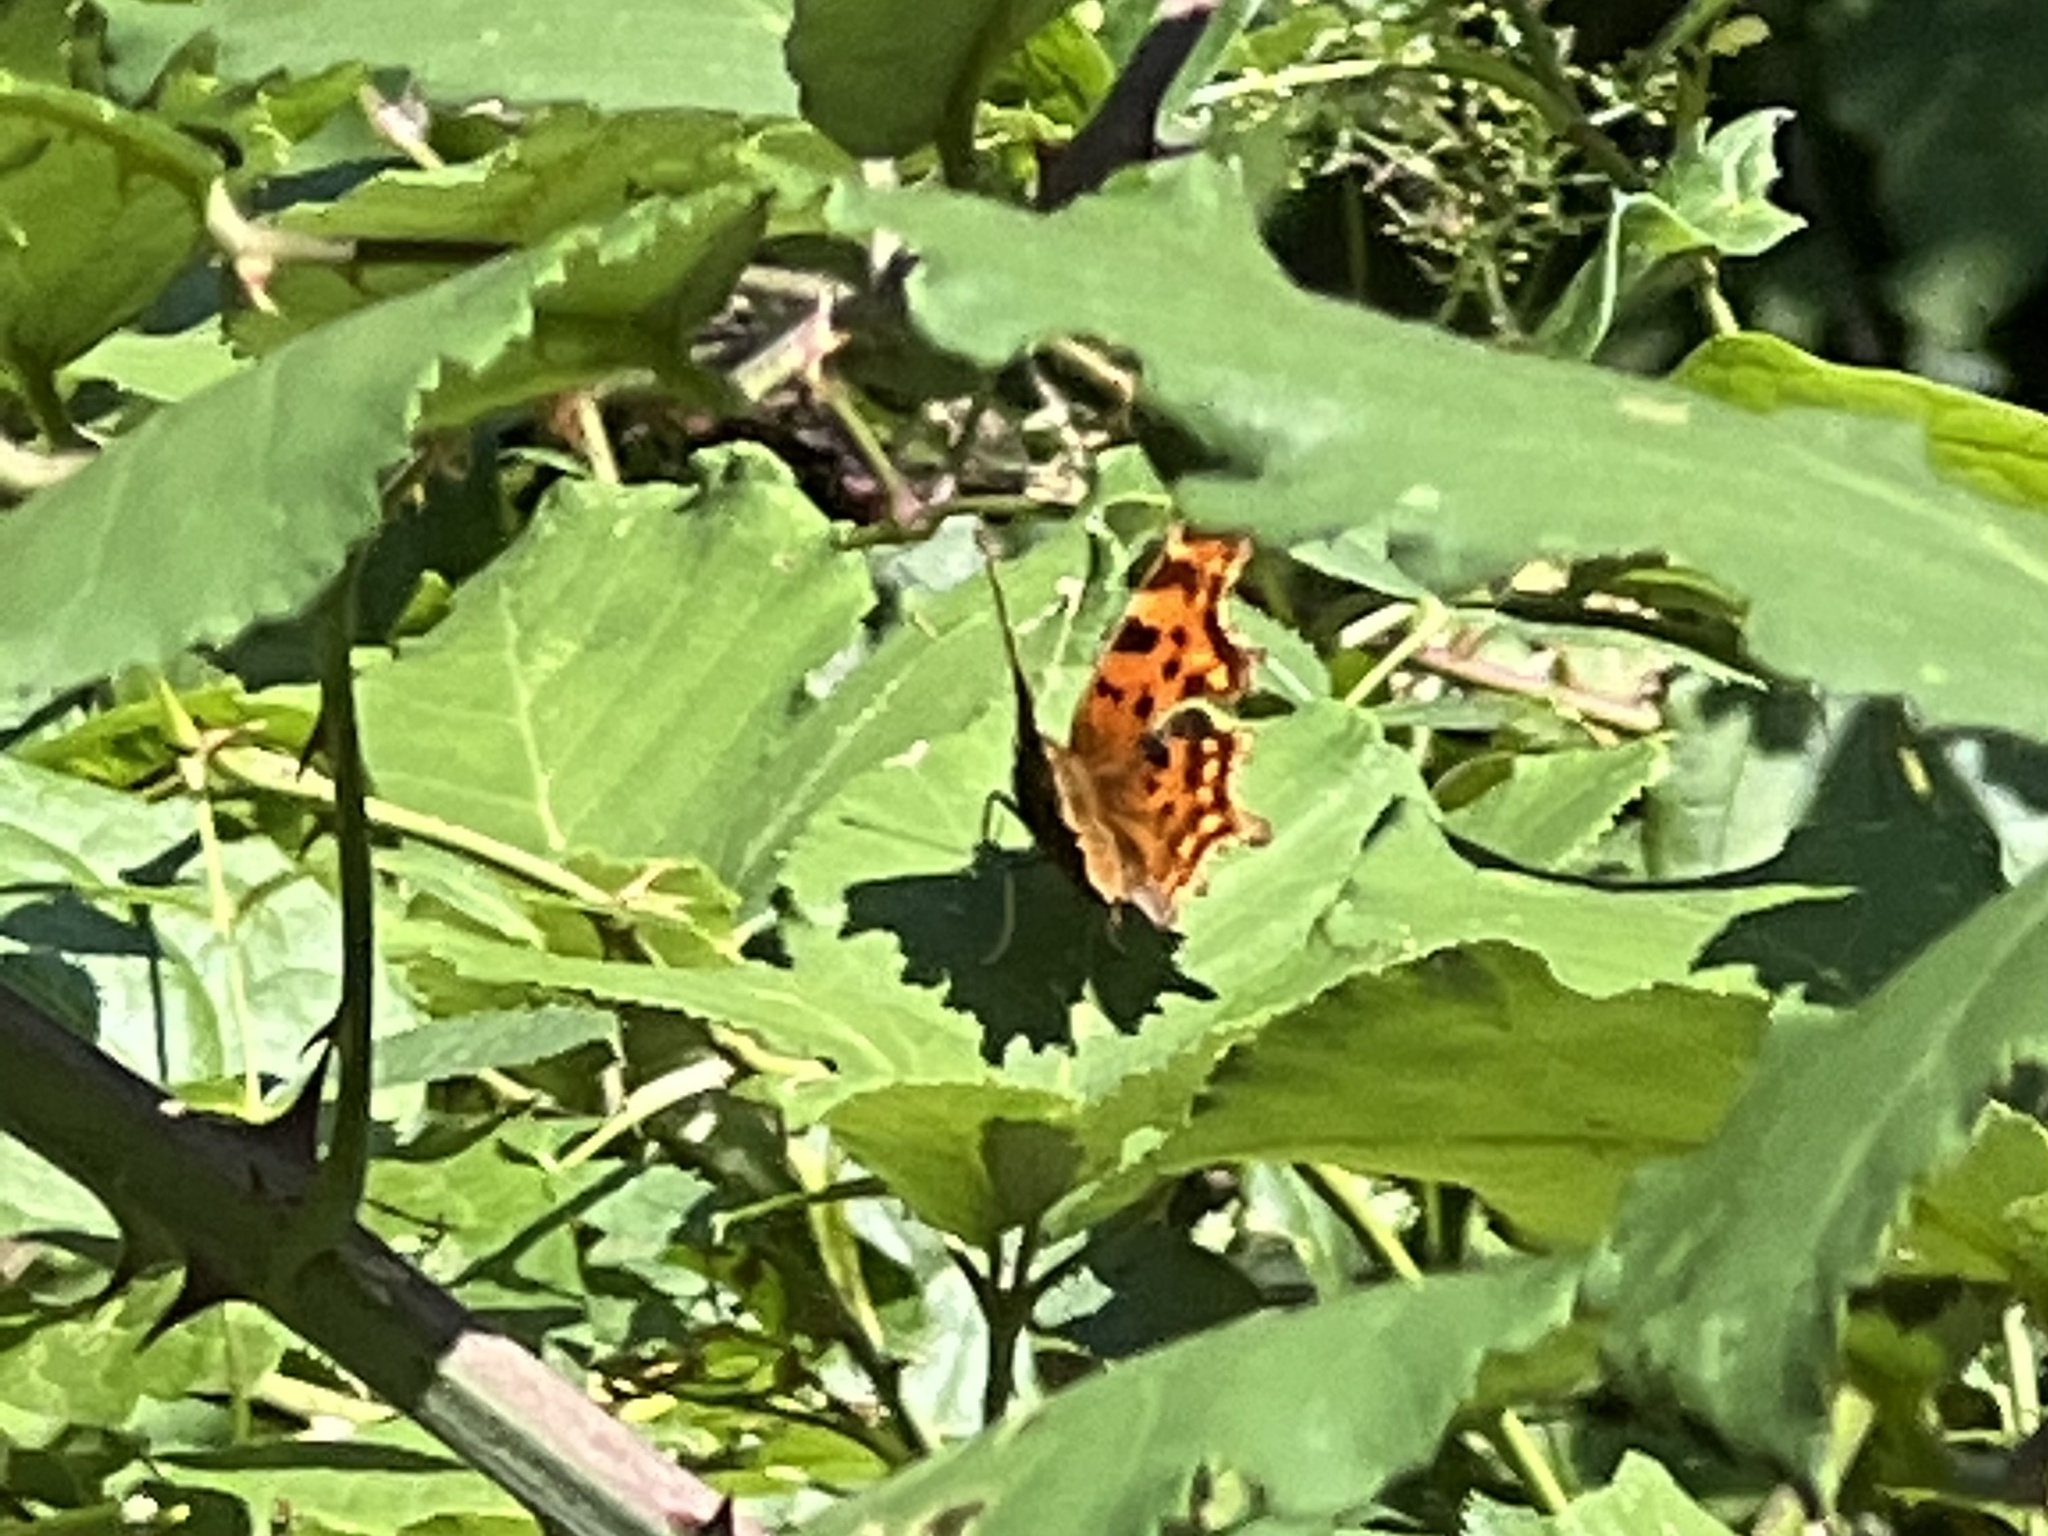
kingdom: Animalia
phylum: Arthropoda
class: Insecta
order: Lepidoptera
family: Nymphalidae
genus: Polygonia
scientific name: Polygonia c-album
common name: Comma
